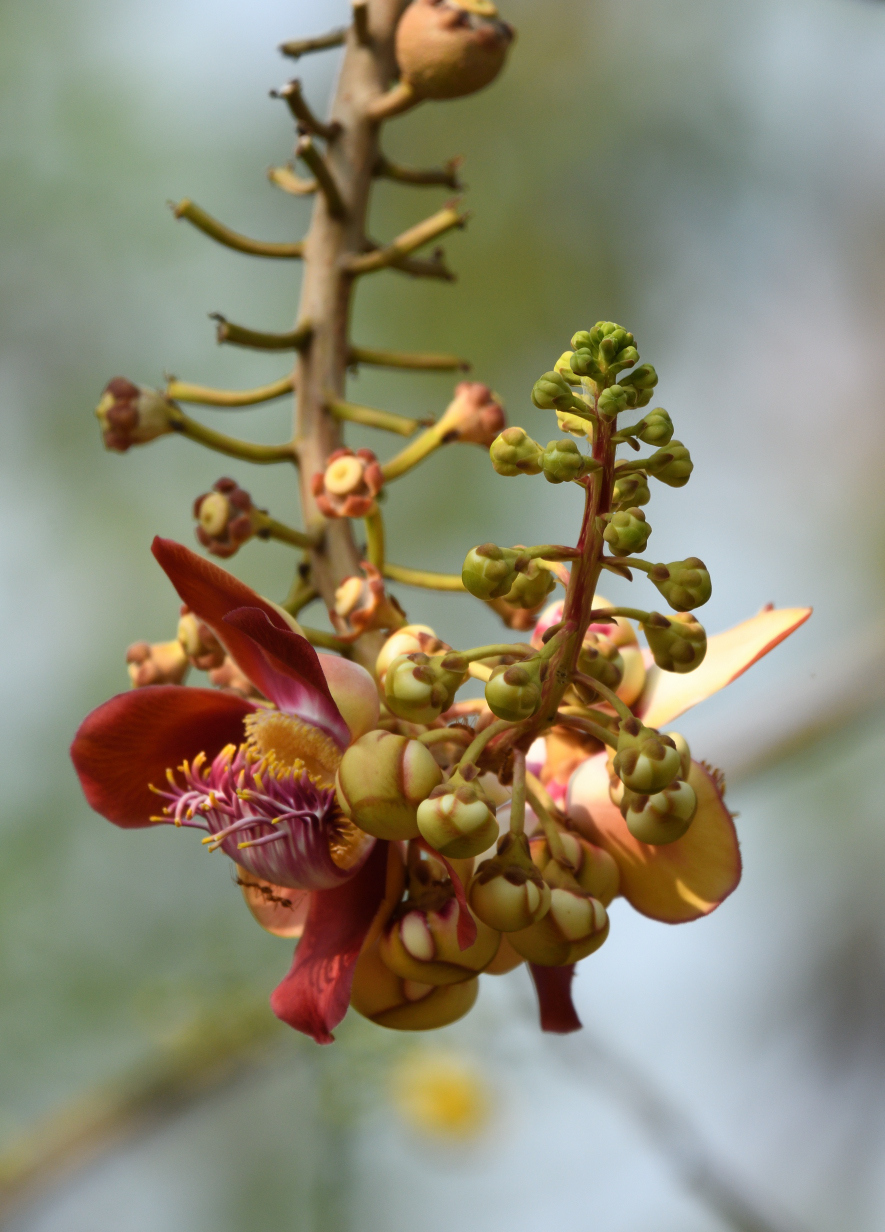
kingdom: Plantae
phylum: Tracheophyta
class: Magnoliopsida
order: Ericales
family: Lecythidaceae
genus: Couroupita
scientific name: Couroupita guianensis
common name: Cannonball tree
